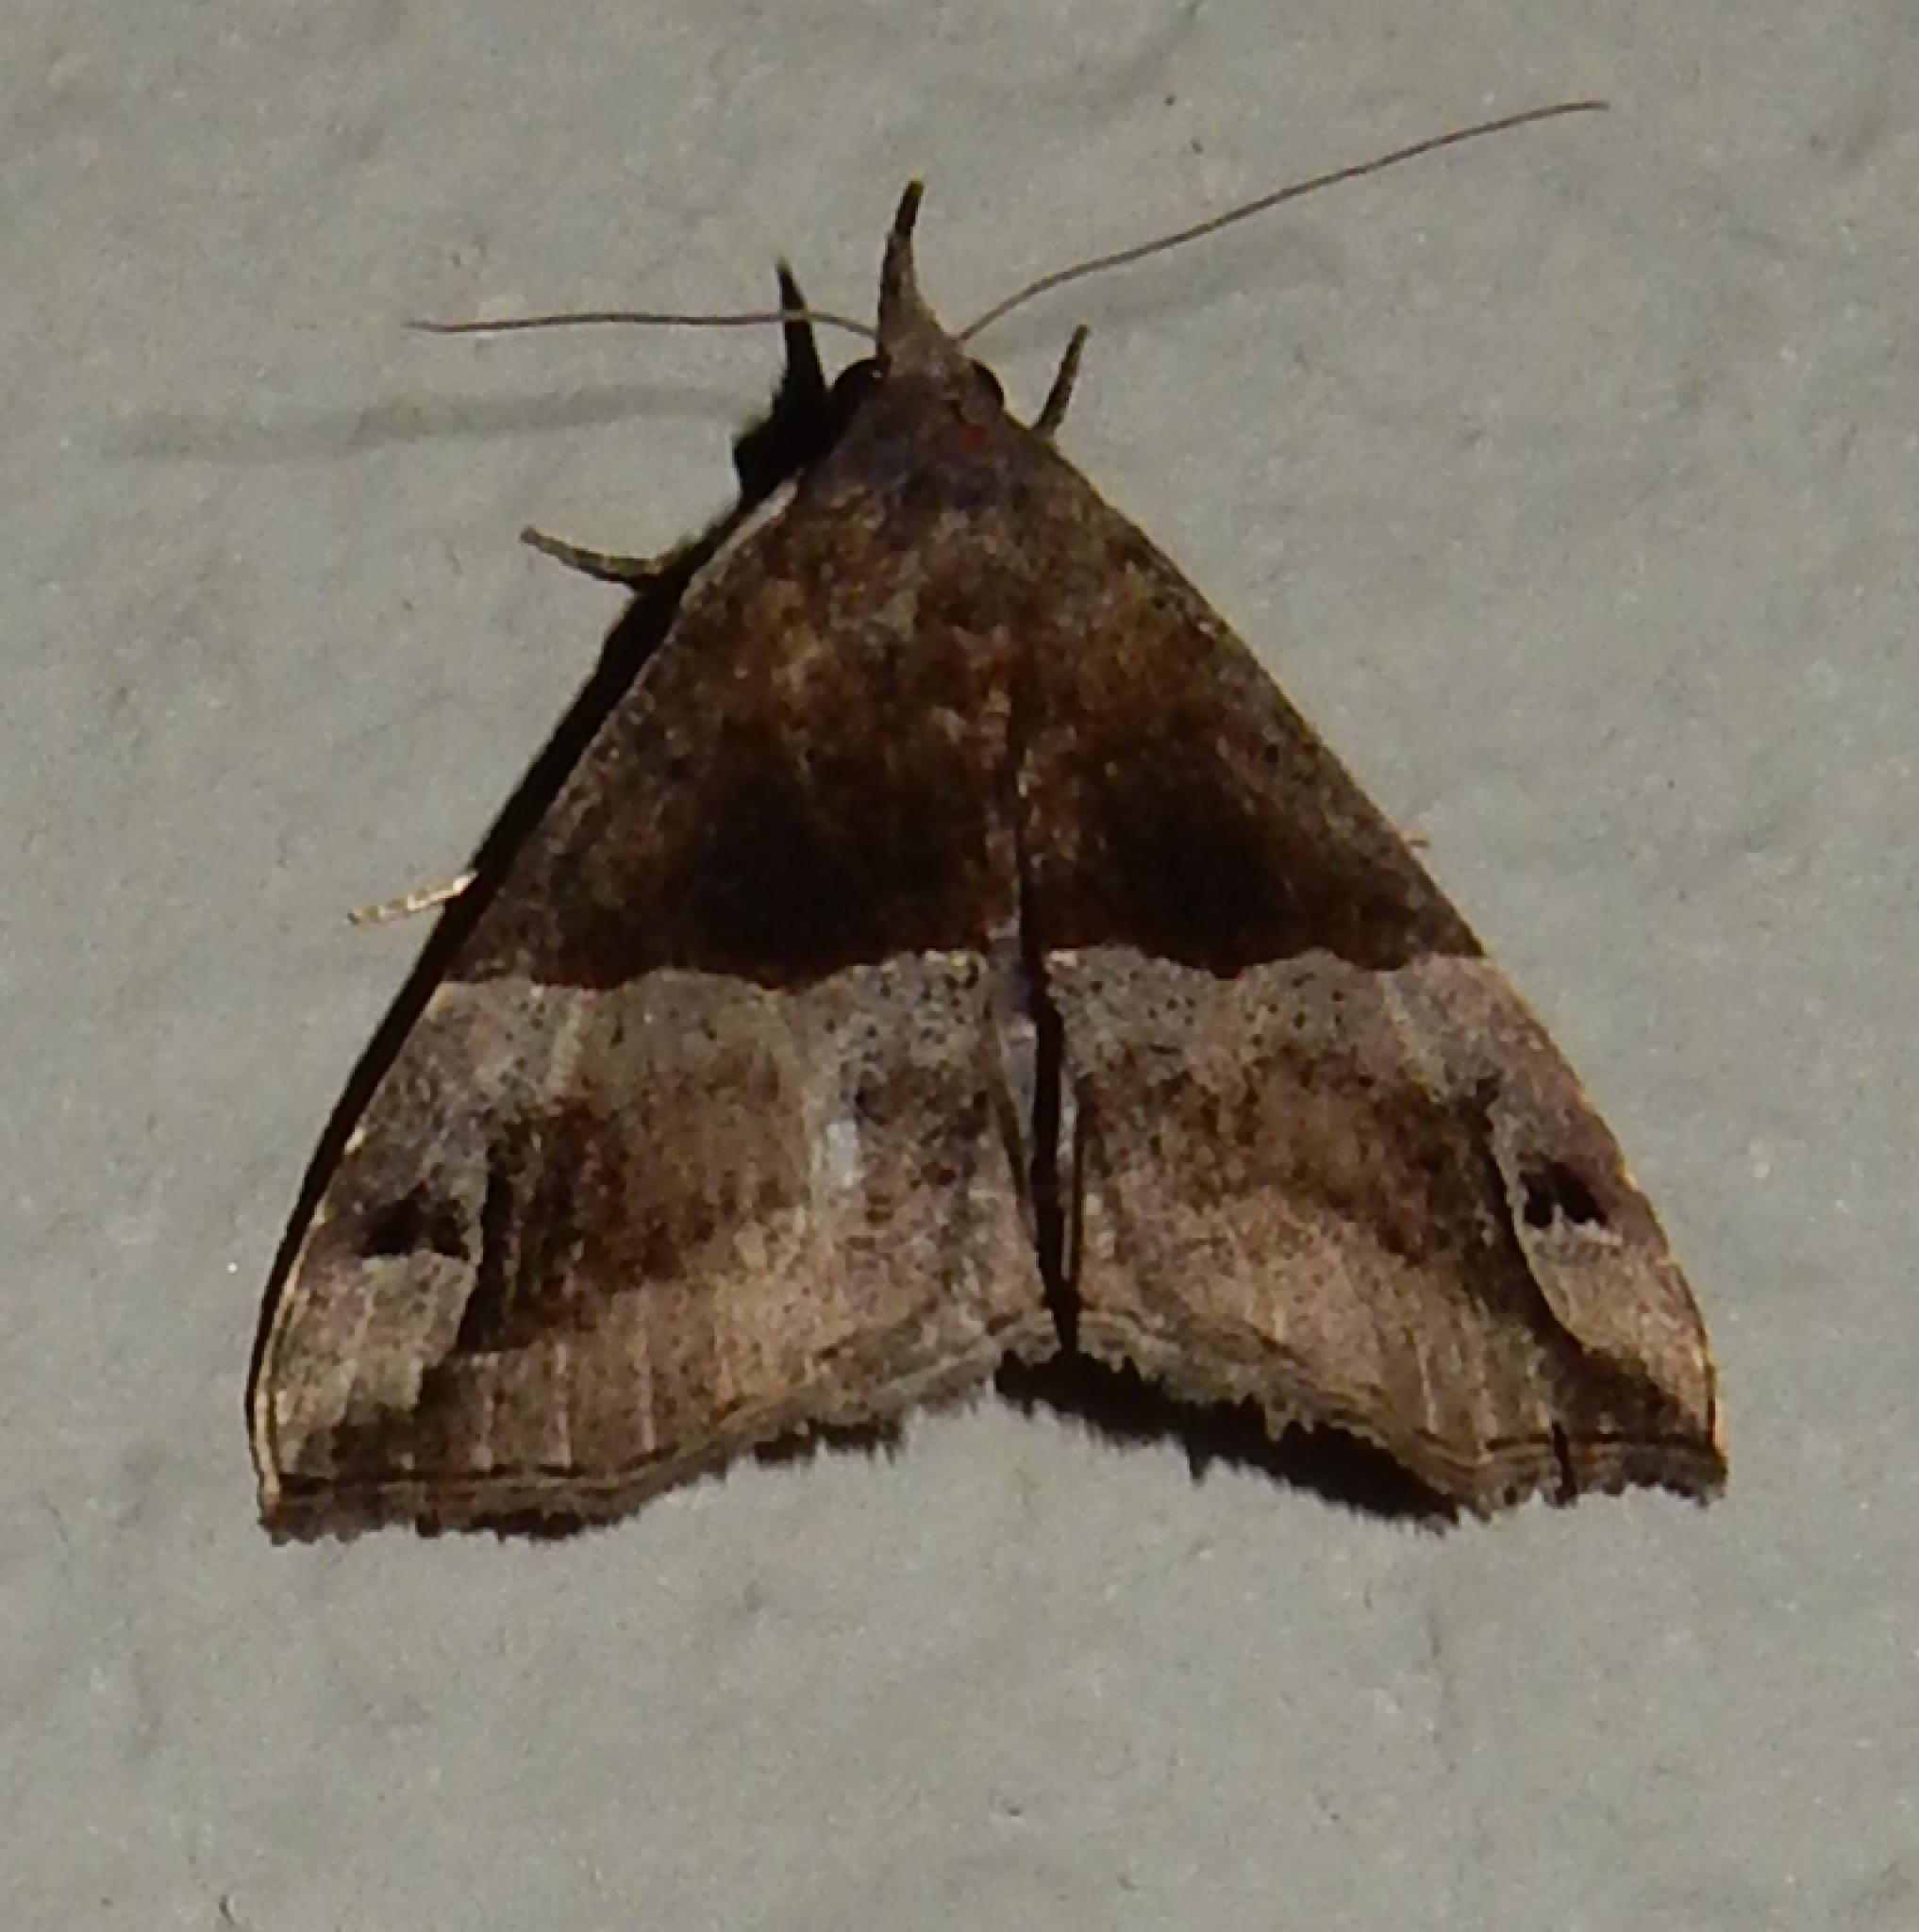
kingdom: Animalia
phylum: Arthropoda
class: Insecta
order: Lepidoptera
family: Erebidae
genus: Hypena
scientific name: Hypena
